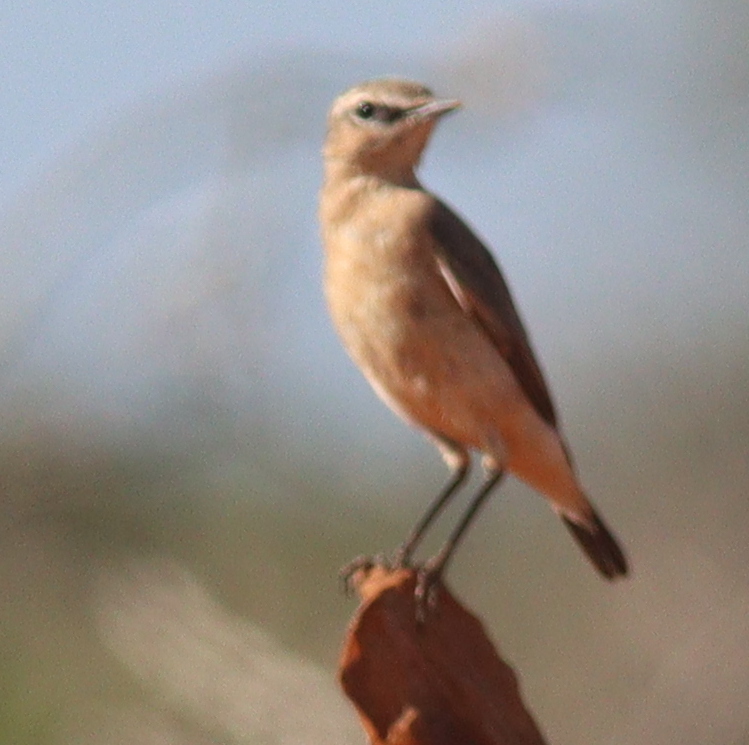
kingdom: Animalia
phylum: Chordata
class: Aves
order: Passeriformes
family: Muscicapidae
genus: Oenanthe
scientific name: Oenanthe oenanthe
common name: Northern wheatear
